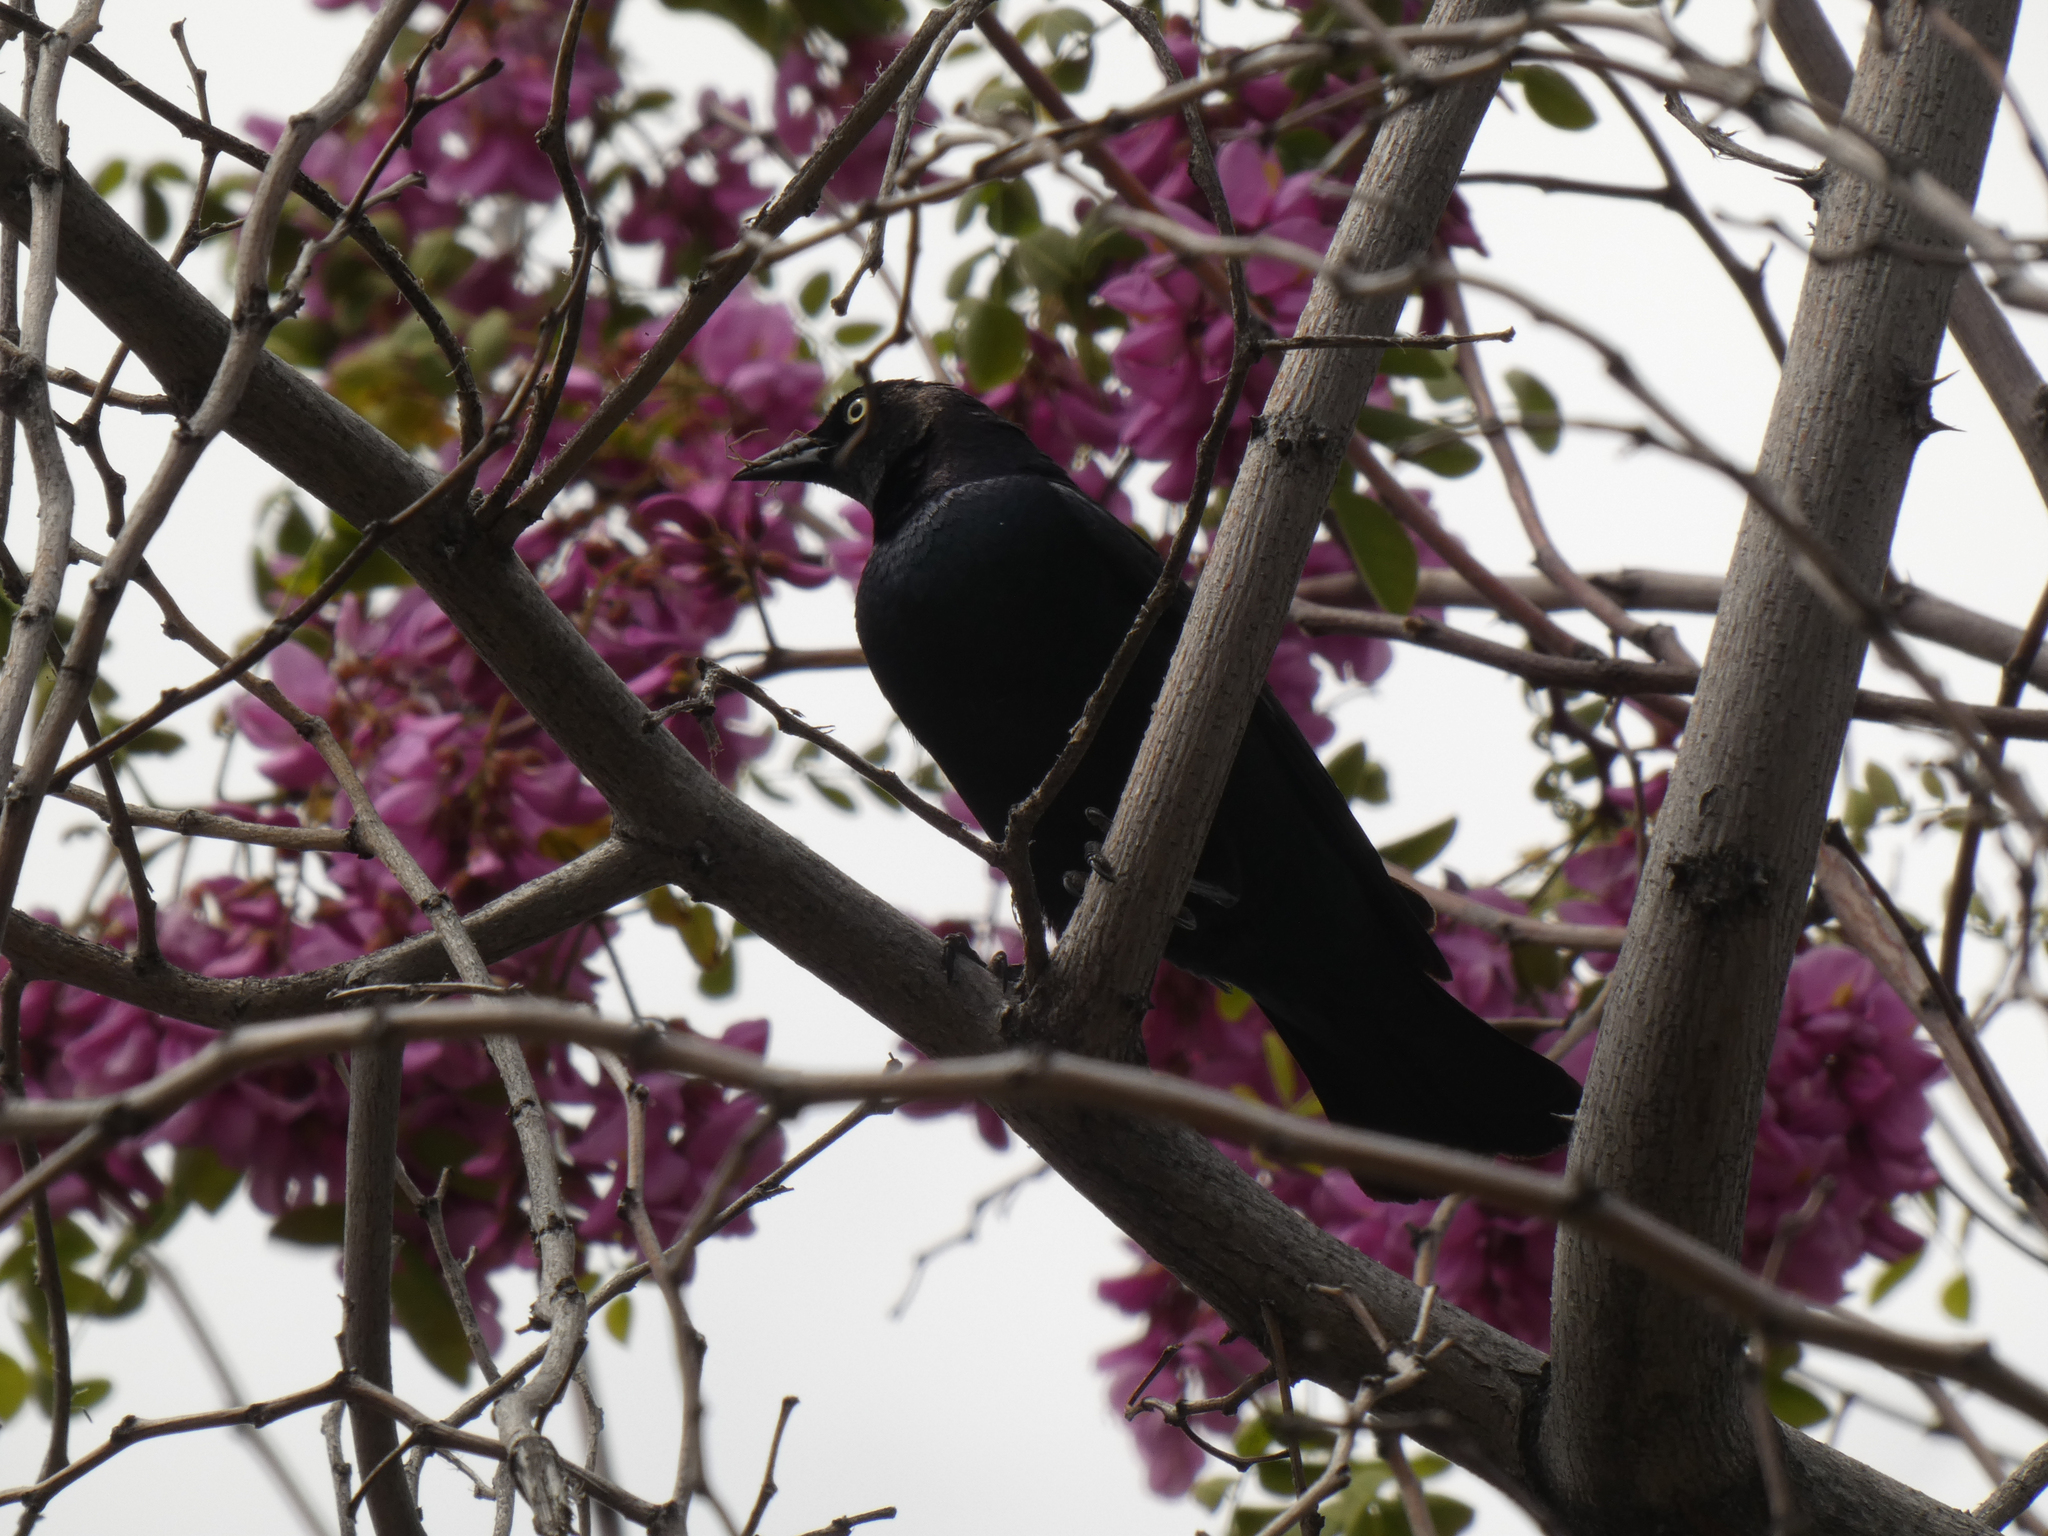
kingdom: Animalia
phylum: Chordata
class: Aves
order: Passeriformes
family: Icteridae
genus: Euphagus
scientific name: Euphagus cyanocephalus
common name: Brewer's blackbird
